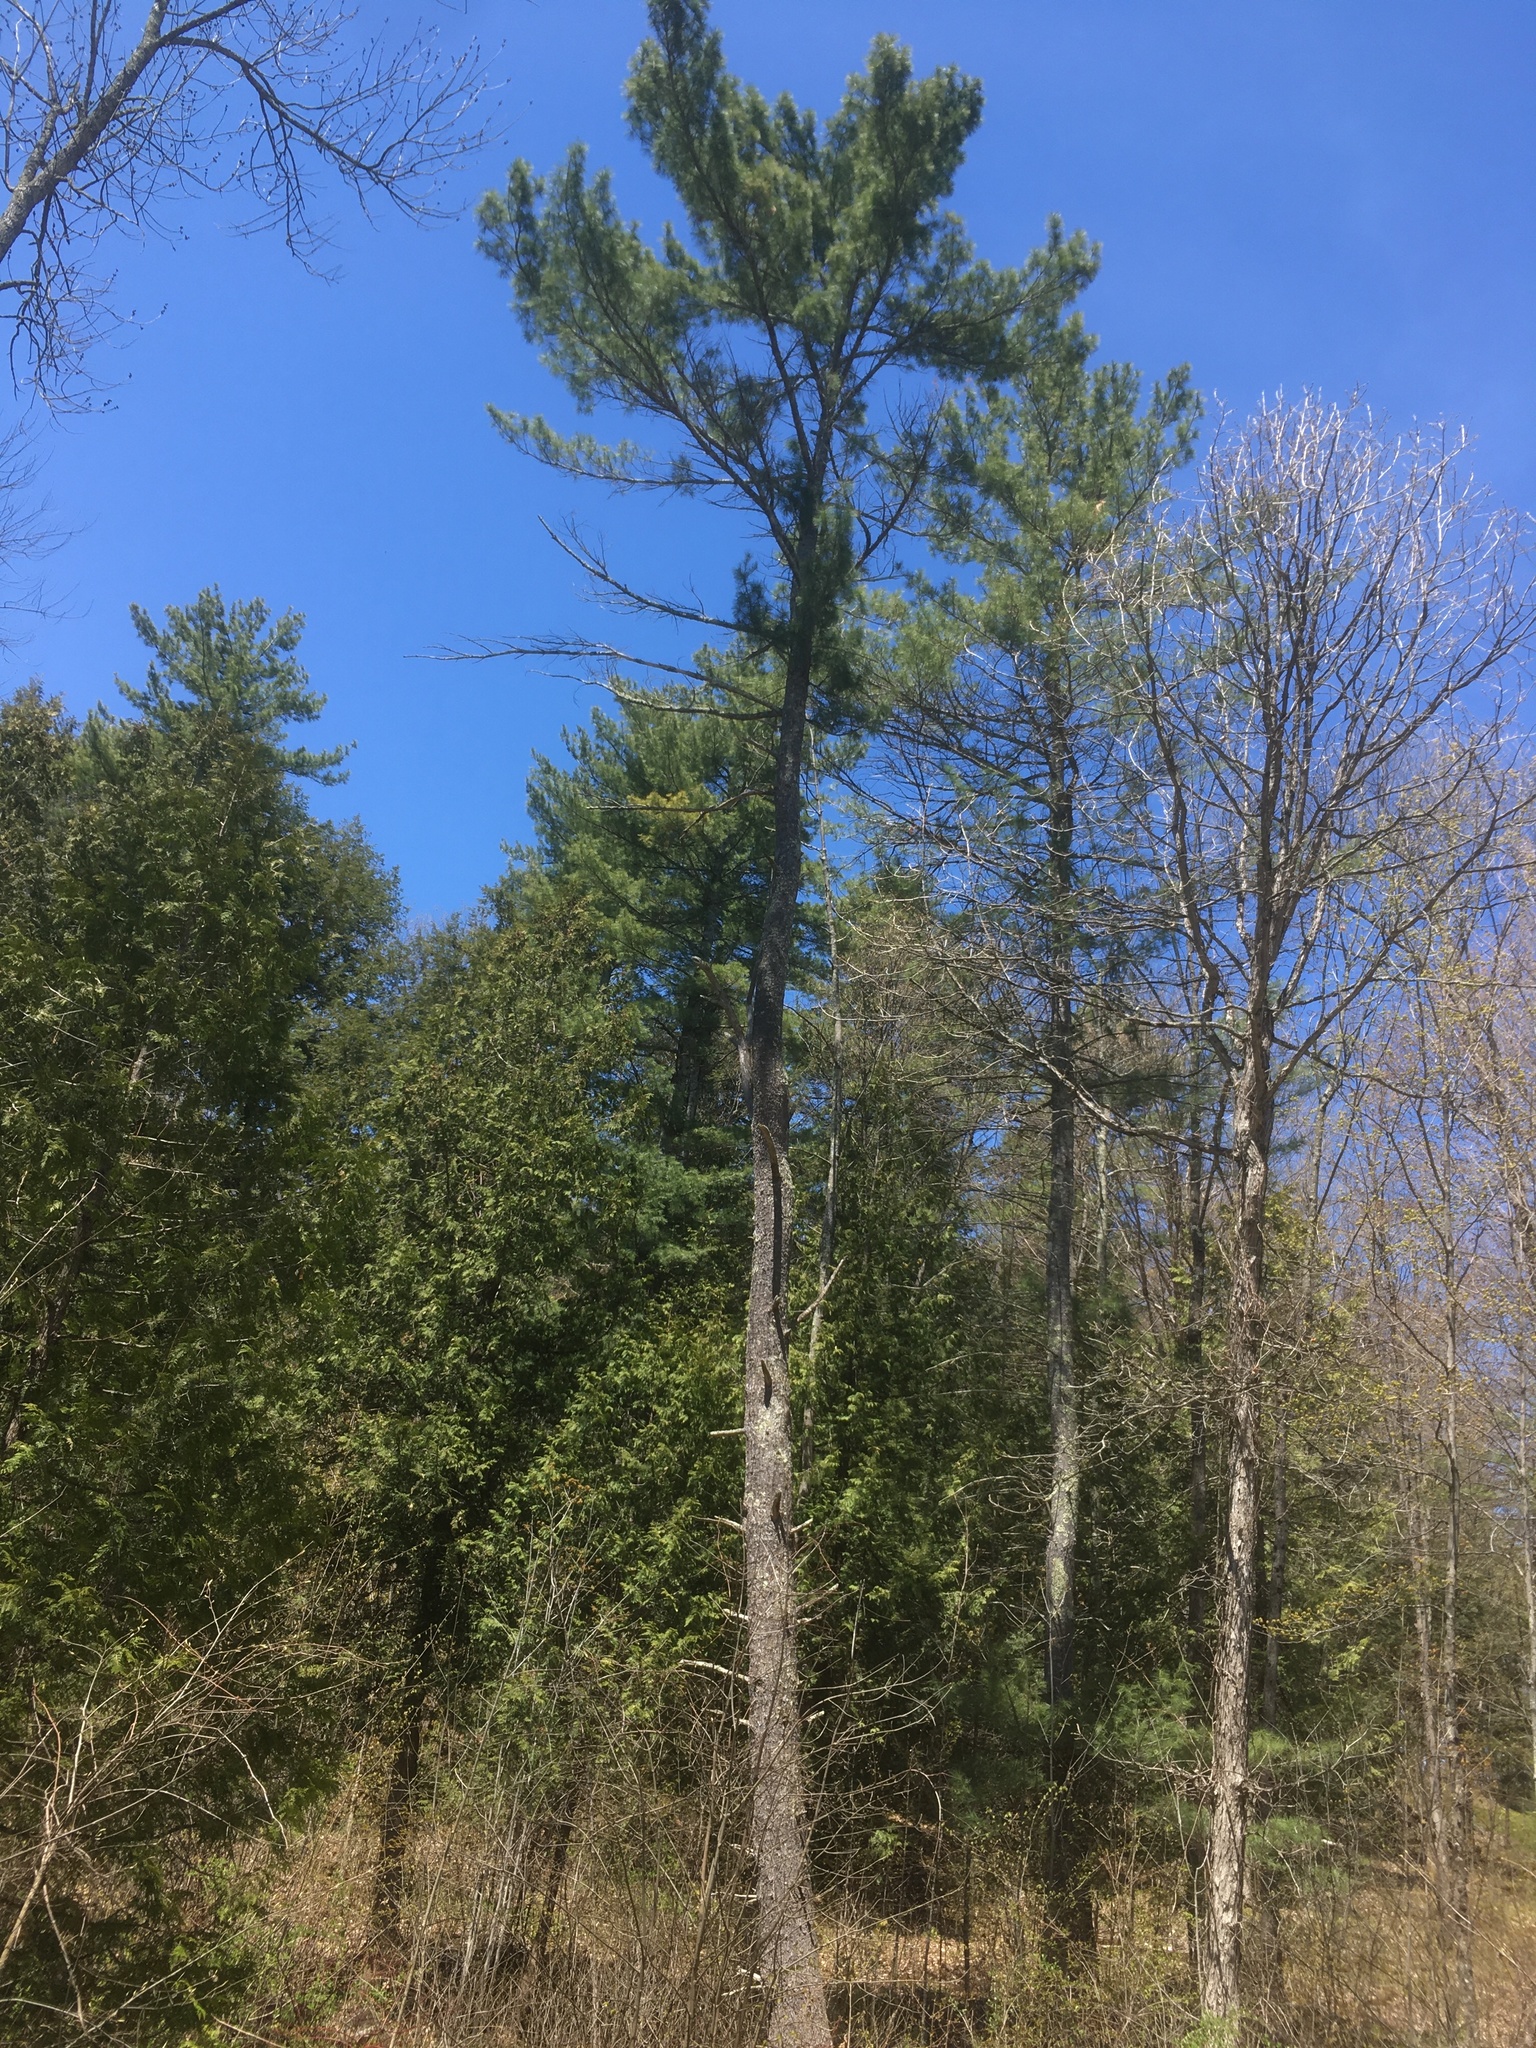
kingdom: Plantae
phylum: Tracheophyta
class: Pinopsida
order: Pinales
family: Pinaceae
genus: Pinus
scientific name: Pinus strobus
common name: Weymouth pine
